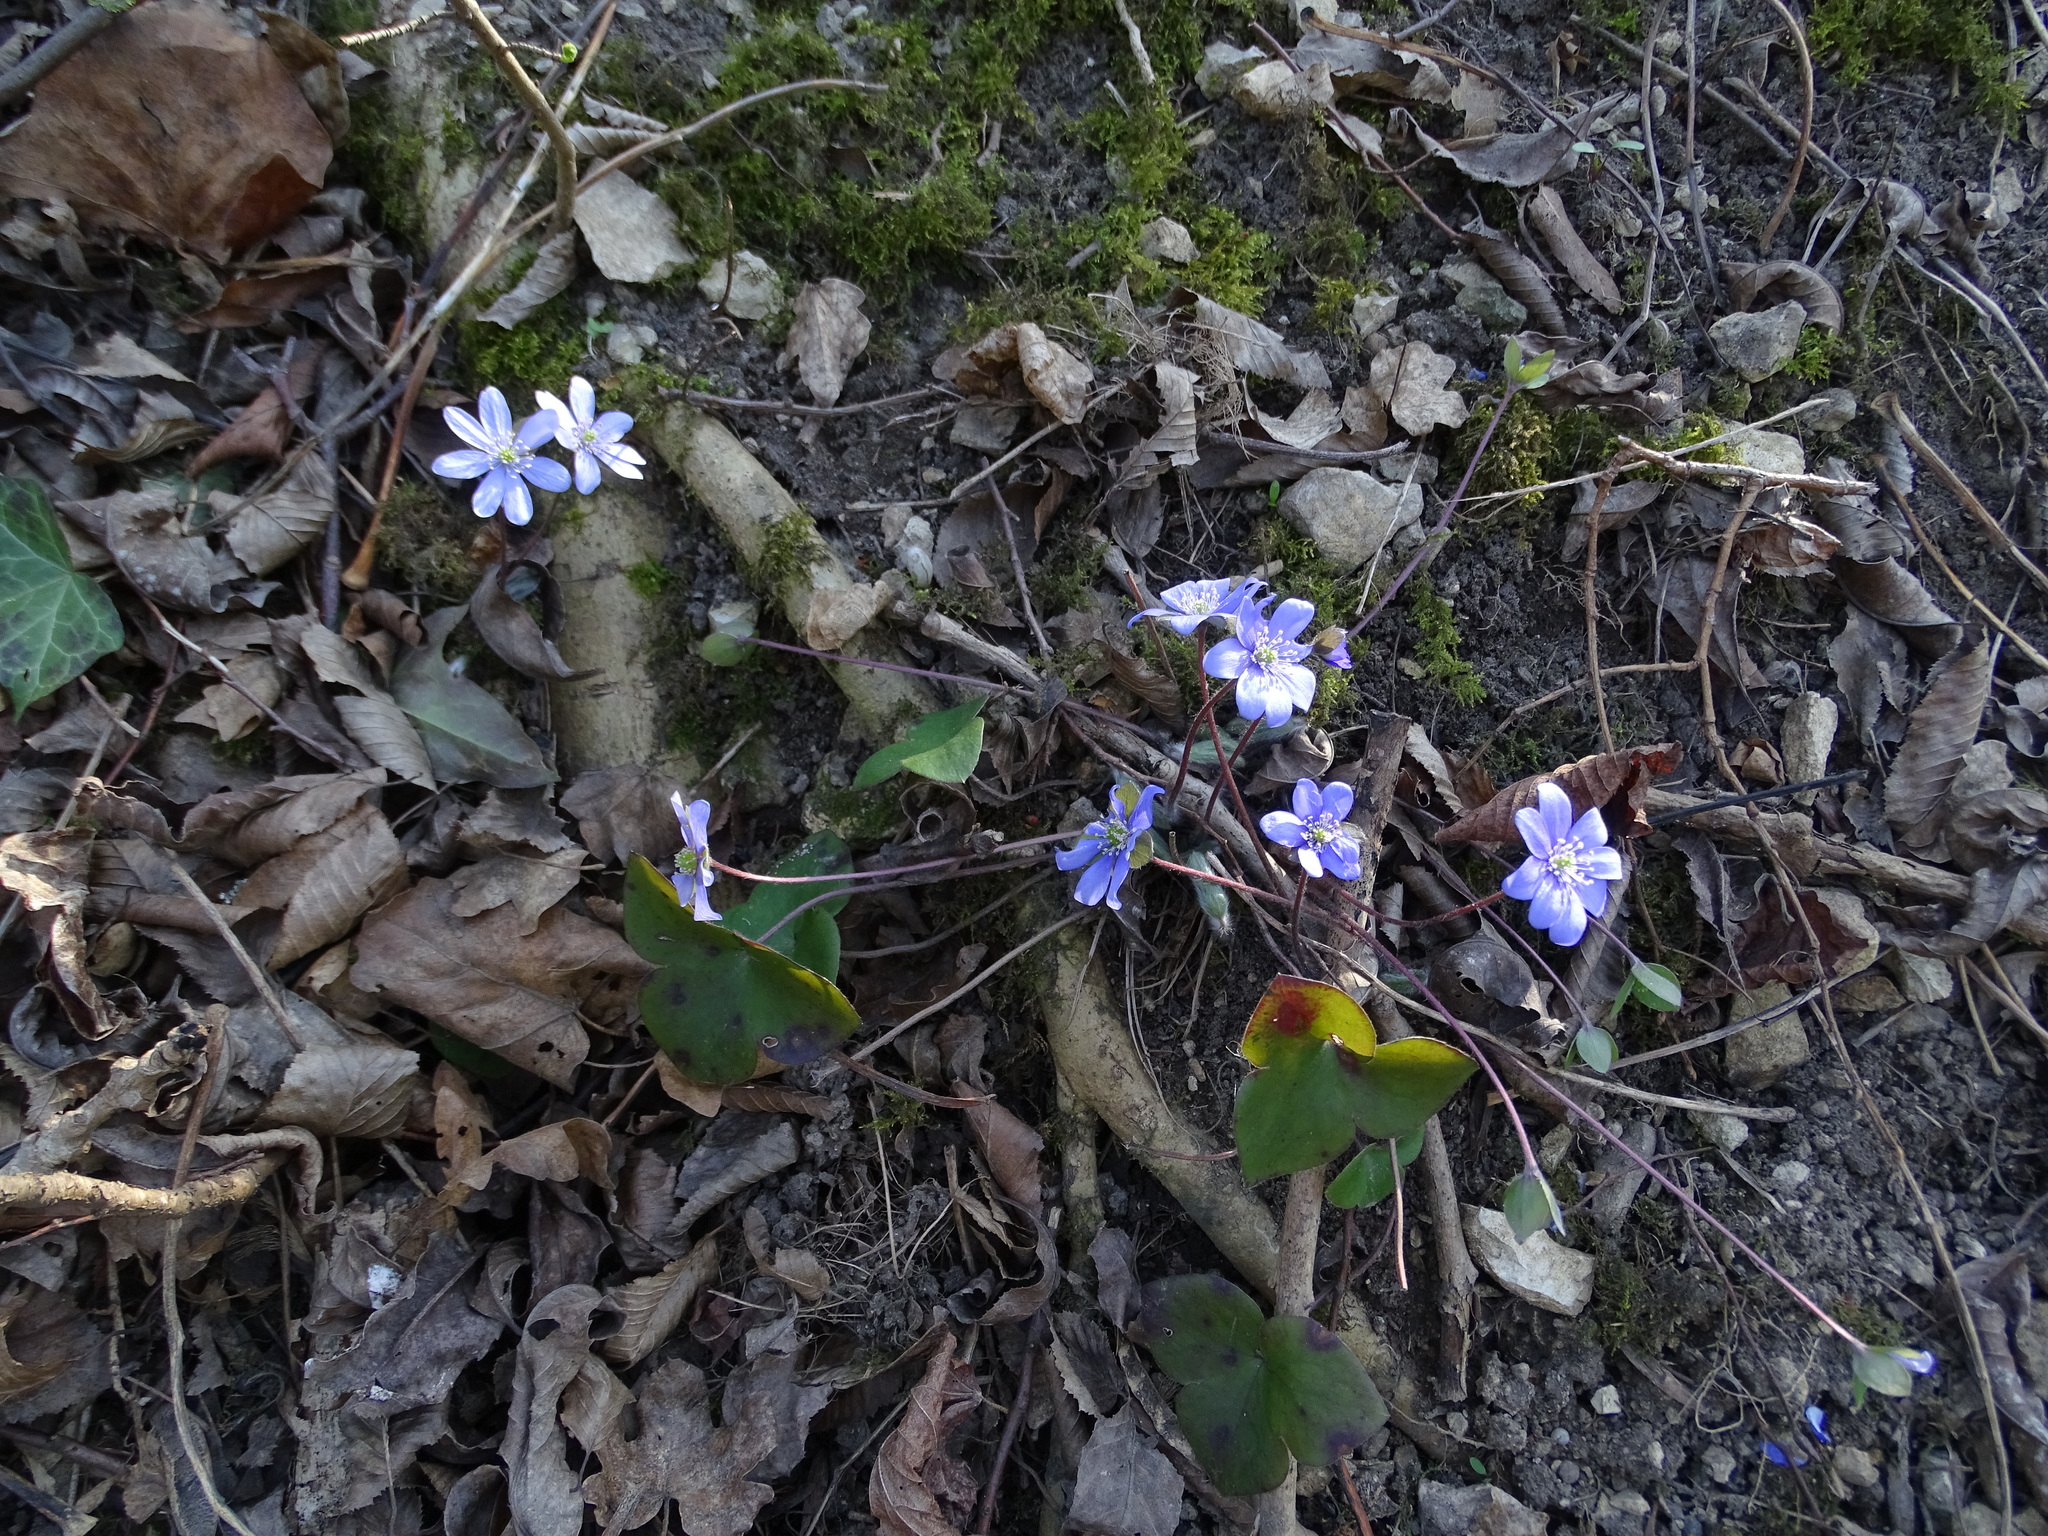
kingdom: Plantae
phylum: Tracheophyta
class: Magnoliopsida
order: Ranunculales
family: Ranunculaceae
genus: Hepatica
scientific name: Hepatica nobilis
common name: Liverleaf
